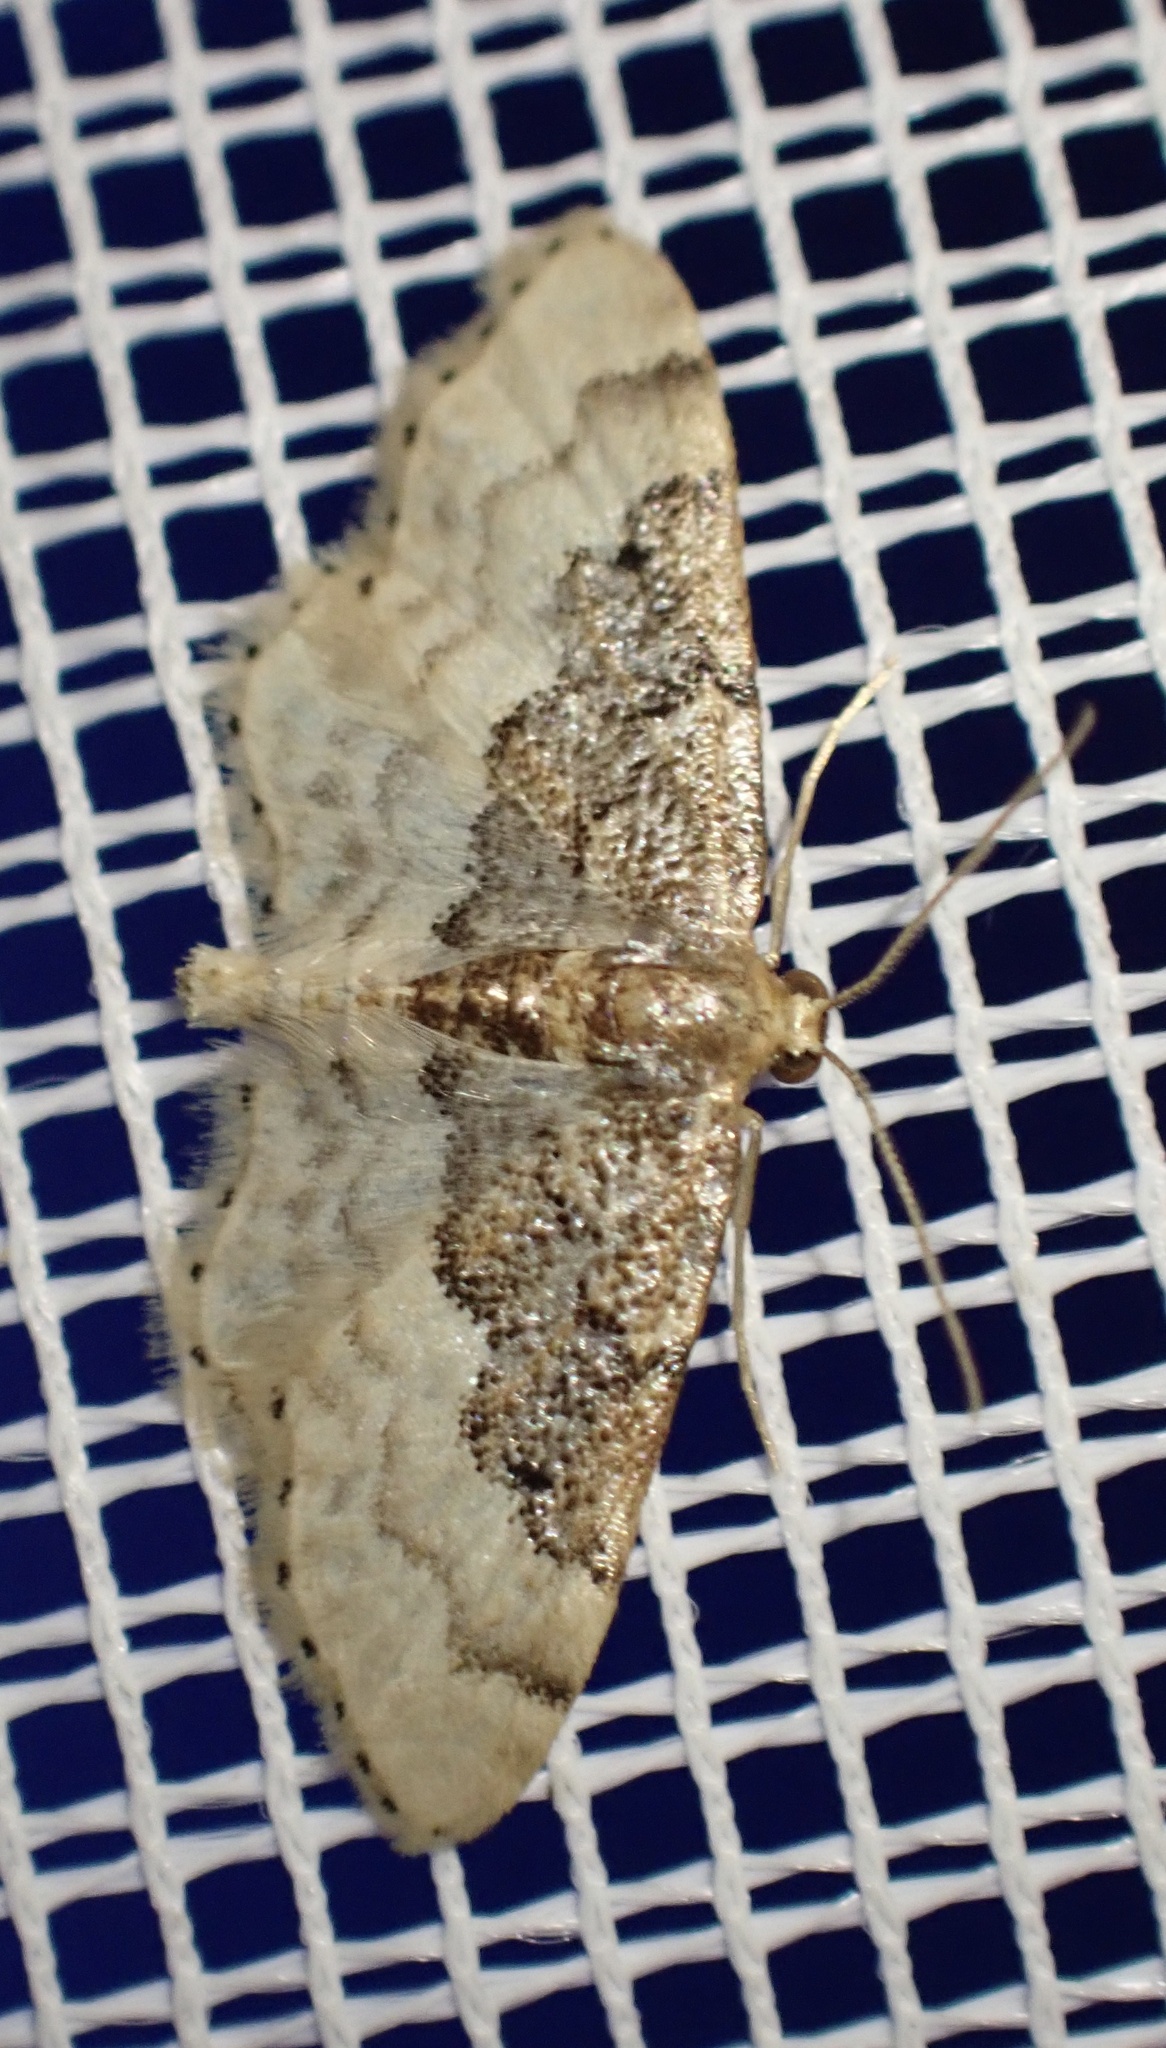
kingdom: Animalia
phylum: Arthropoda
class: Insecta
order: Lepidoptera
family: Geometridae
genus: Idaea
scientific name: Idaea completa
